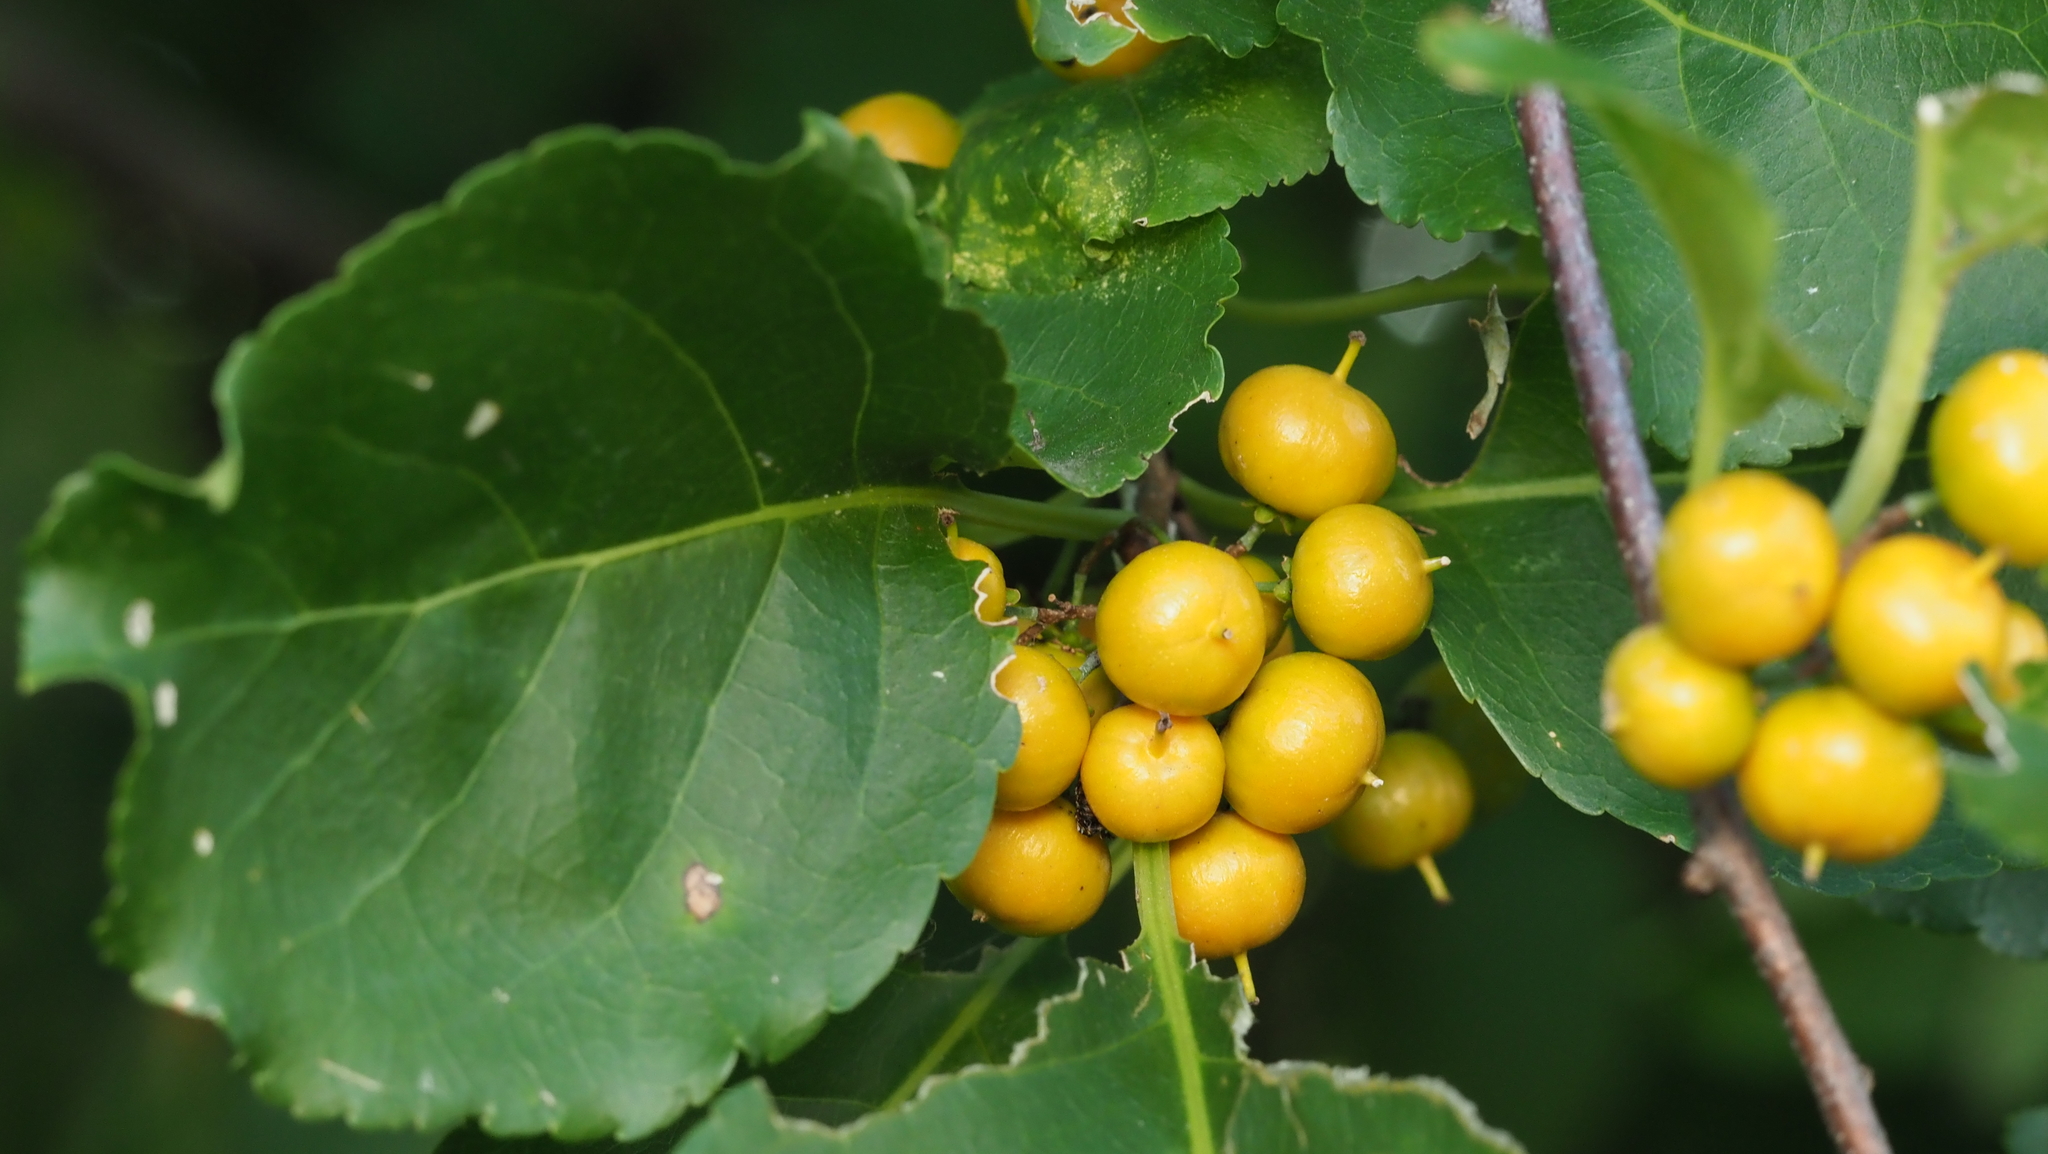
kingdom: Plantae
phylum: Tracheophyta
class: Magnoliopsida
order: Celastrales
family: Celastraceae
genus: Celastrus
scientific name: Celastrus orbiculatus
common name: Oriental bittersweet
